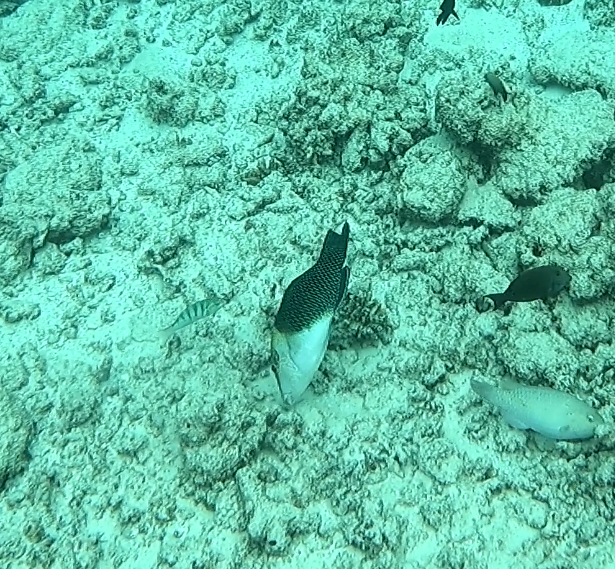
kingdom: Animalia
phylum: Chordata
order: Perciformes
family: Labridae
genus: Hemigymnus
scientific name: Hemigymnus melapterus
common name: Blackeye thicklip
